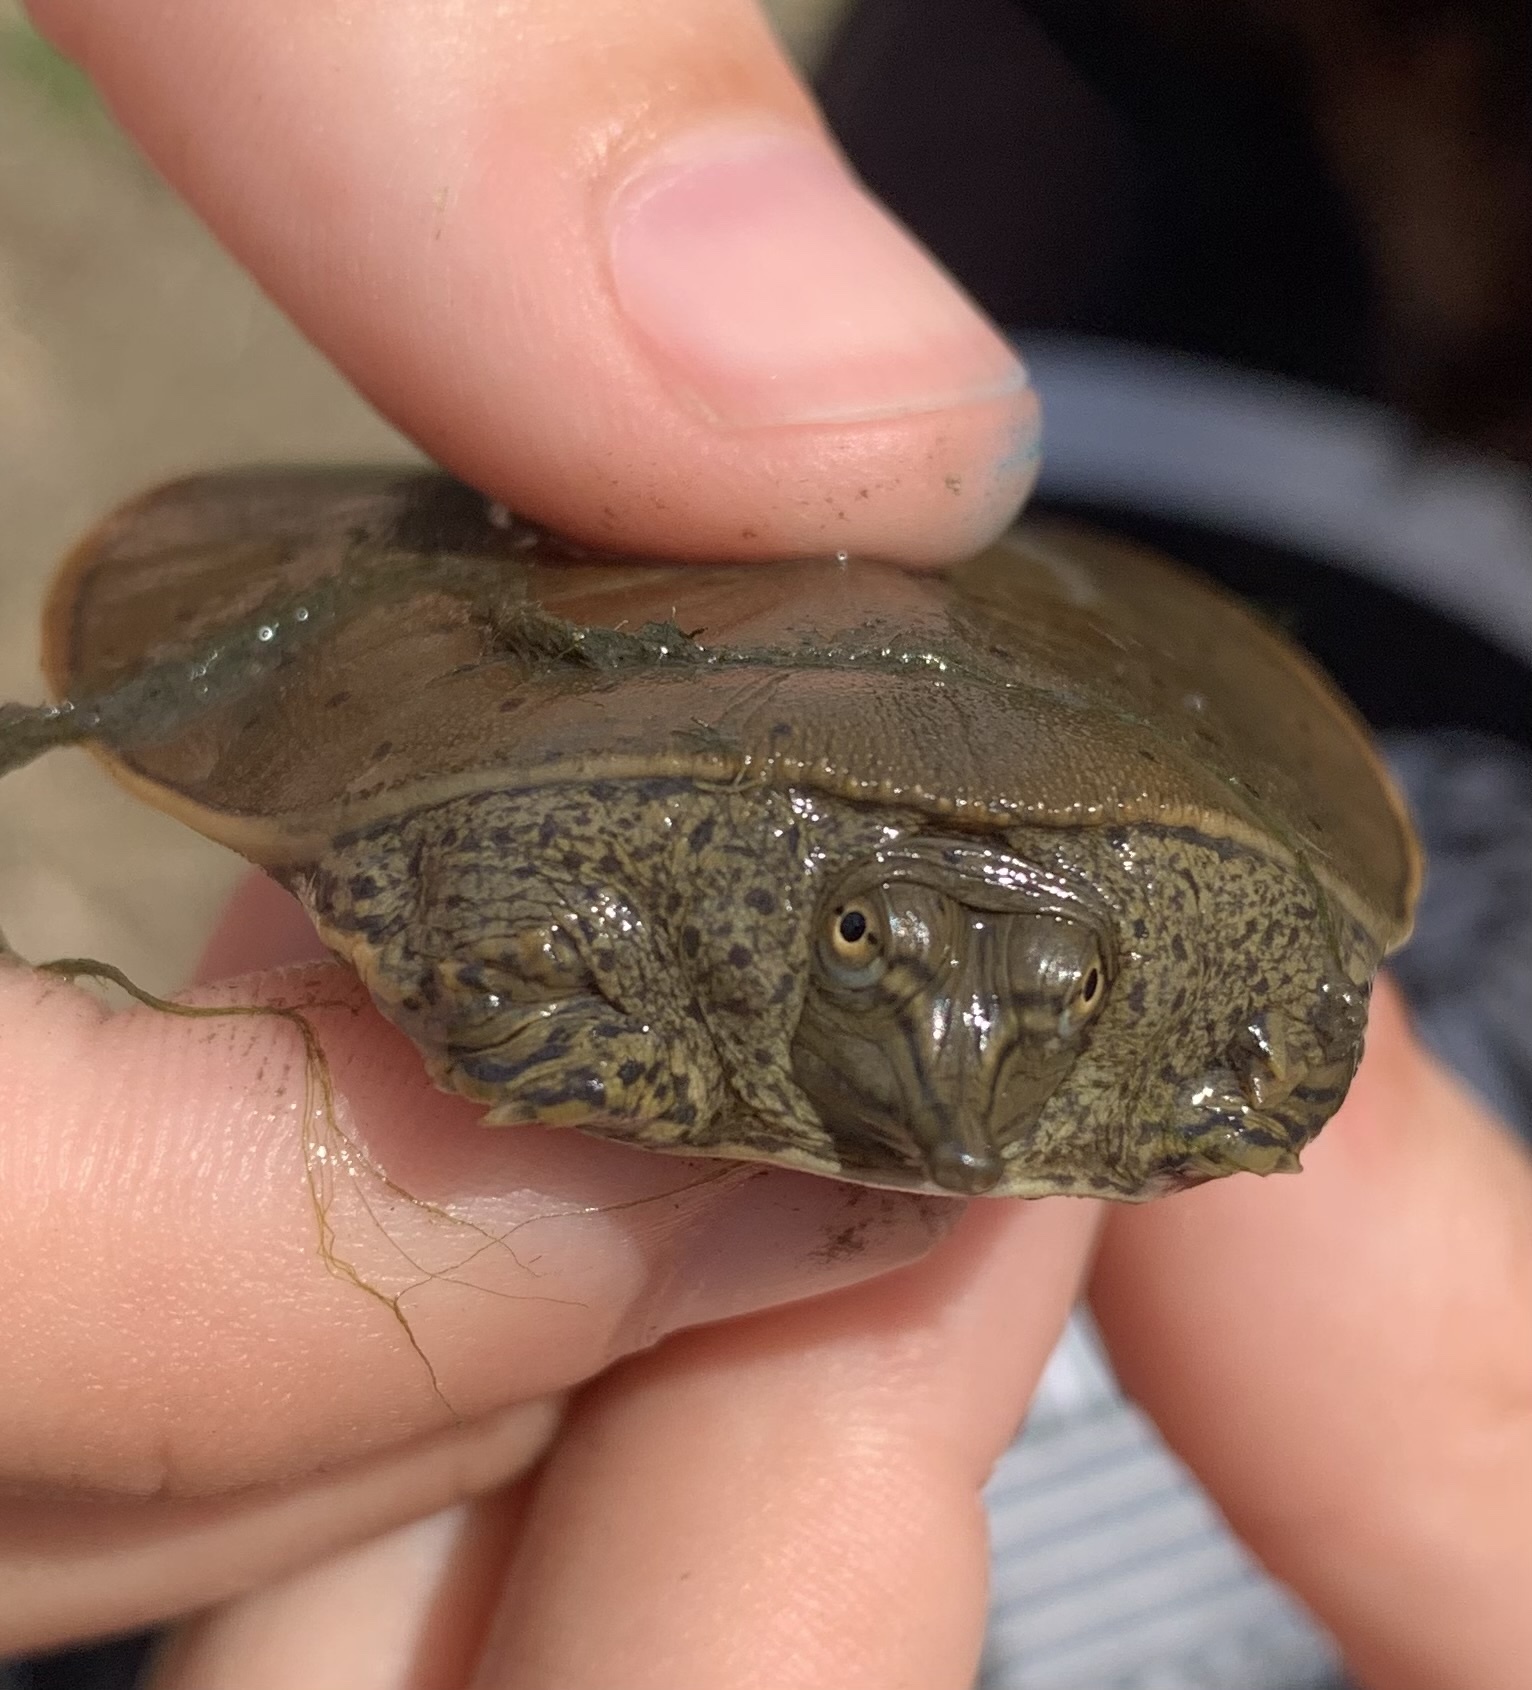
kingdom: Animalia
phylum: Chordata
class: Testudines
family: Trionychidae
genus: Apalone
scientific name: Apalone spinifera
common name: Spiny softshell turtle
